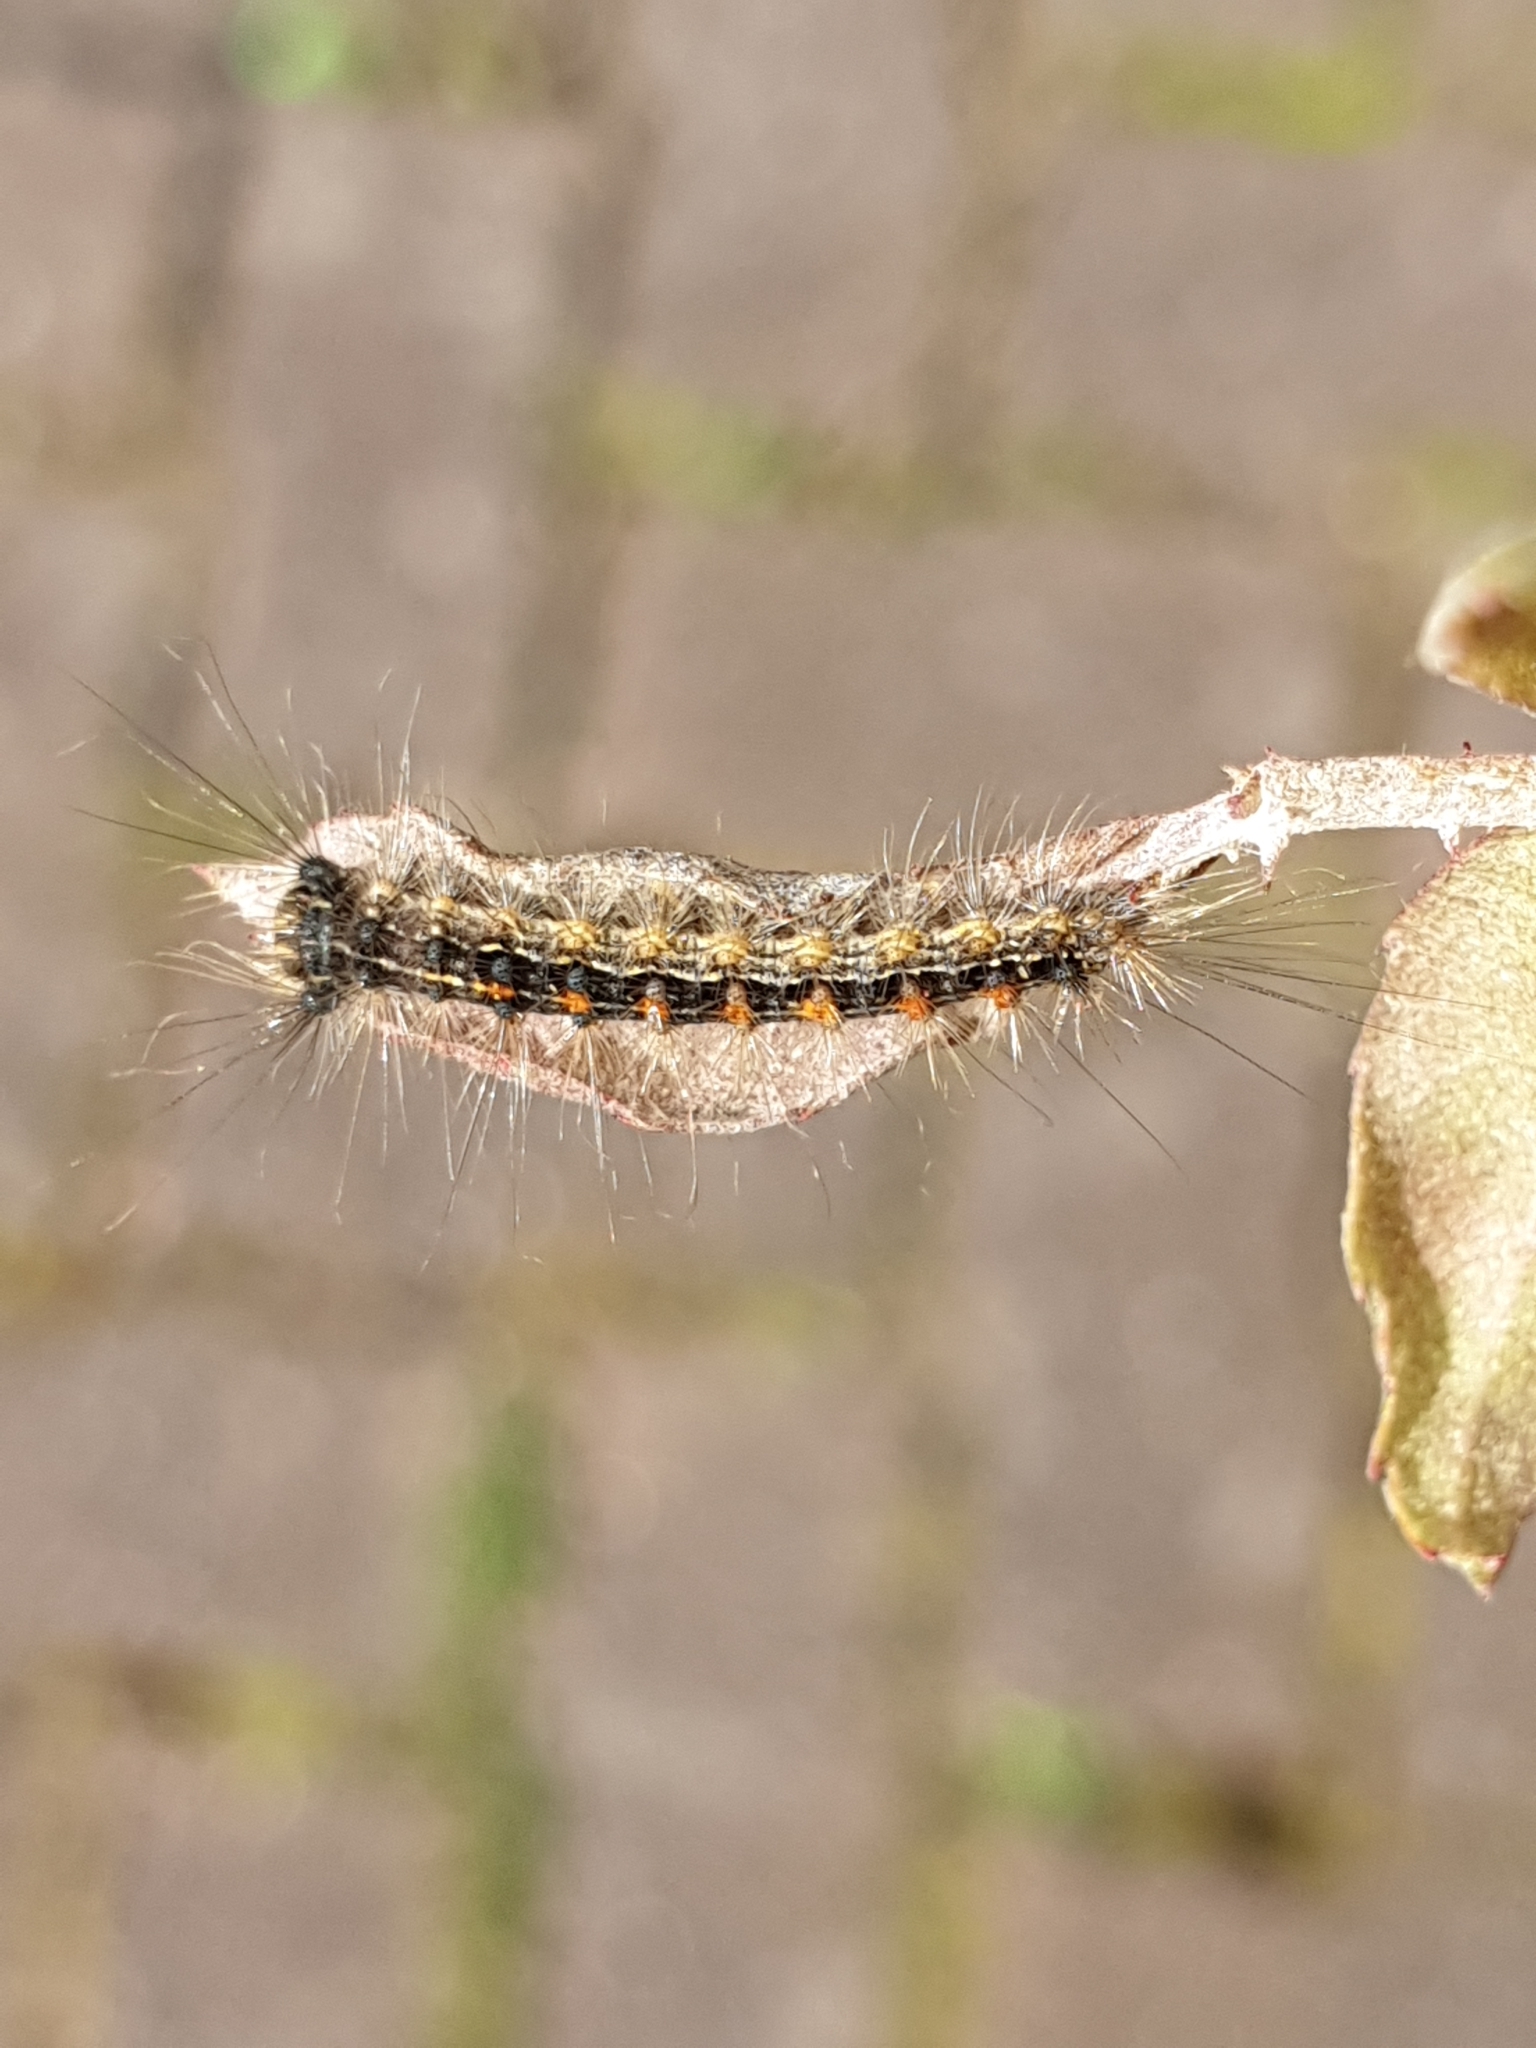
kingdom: Animalia
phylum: Arthropoda
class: Insecta
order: Lepidoptera
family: Erebidae
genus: Lymantria
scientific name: Lymantria dispar
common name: Gypsy moth
